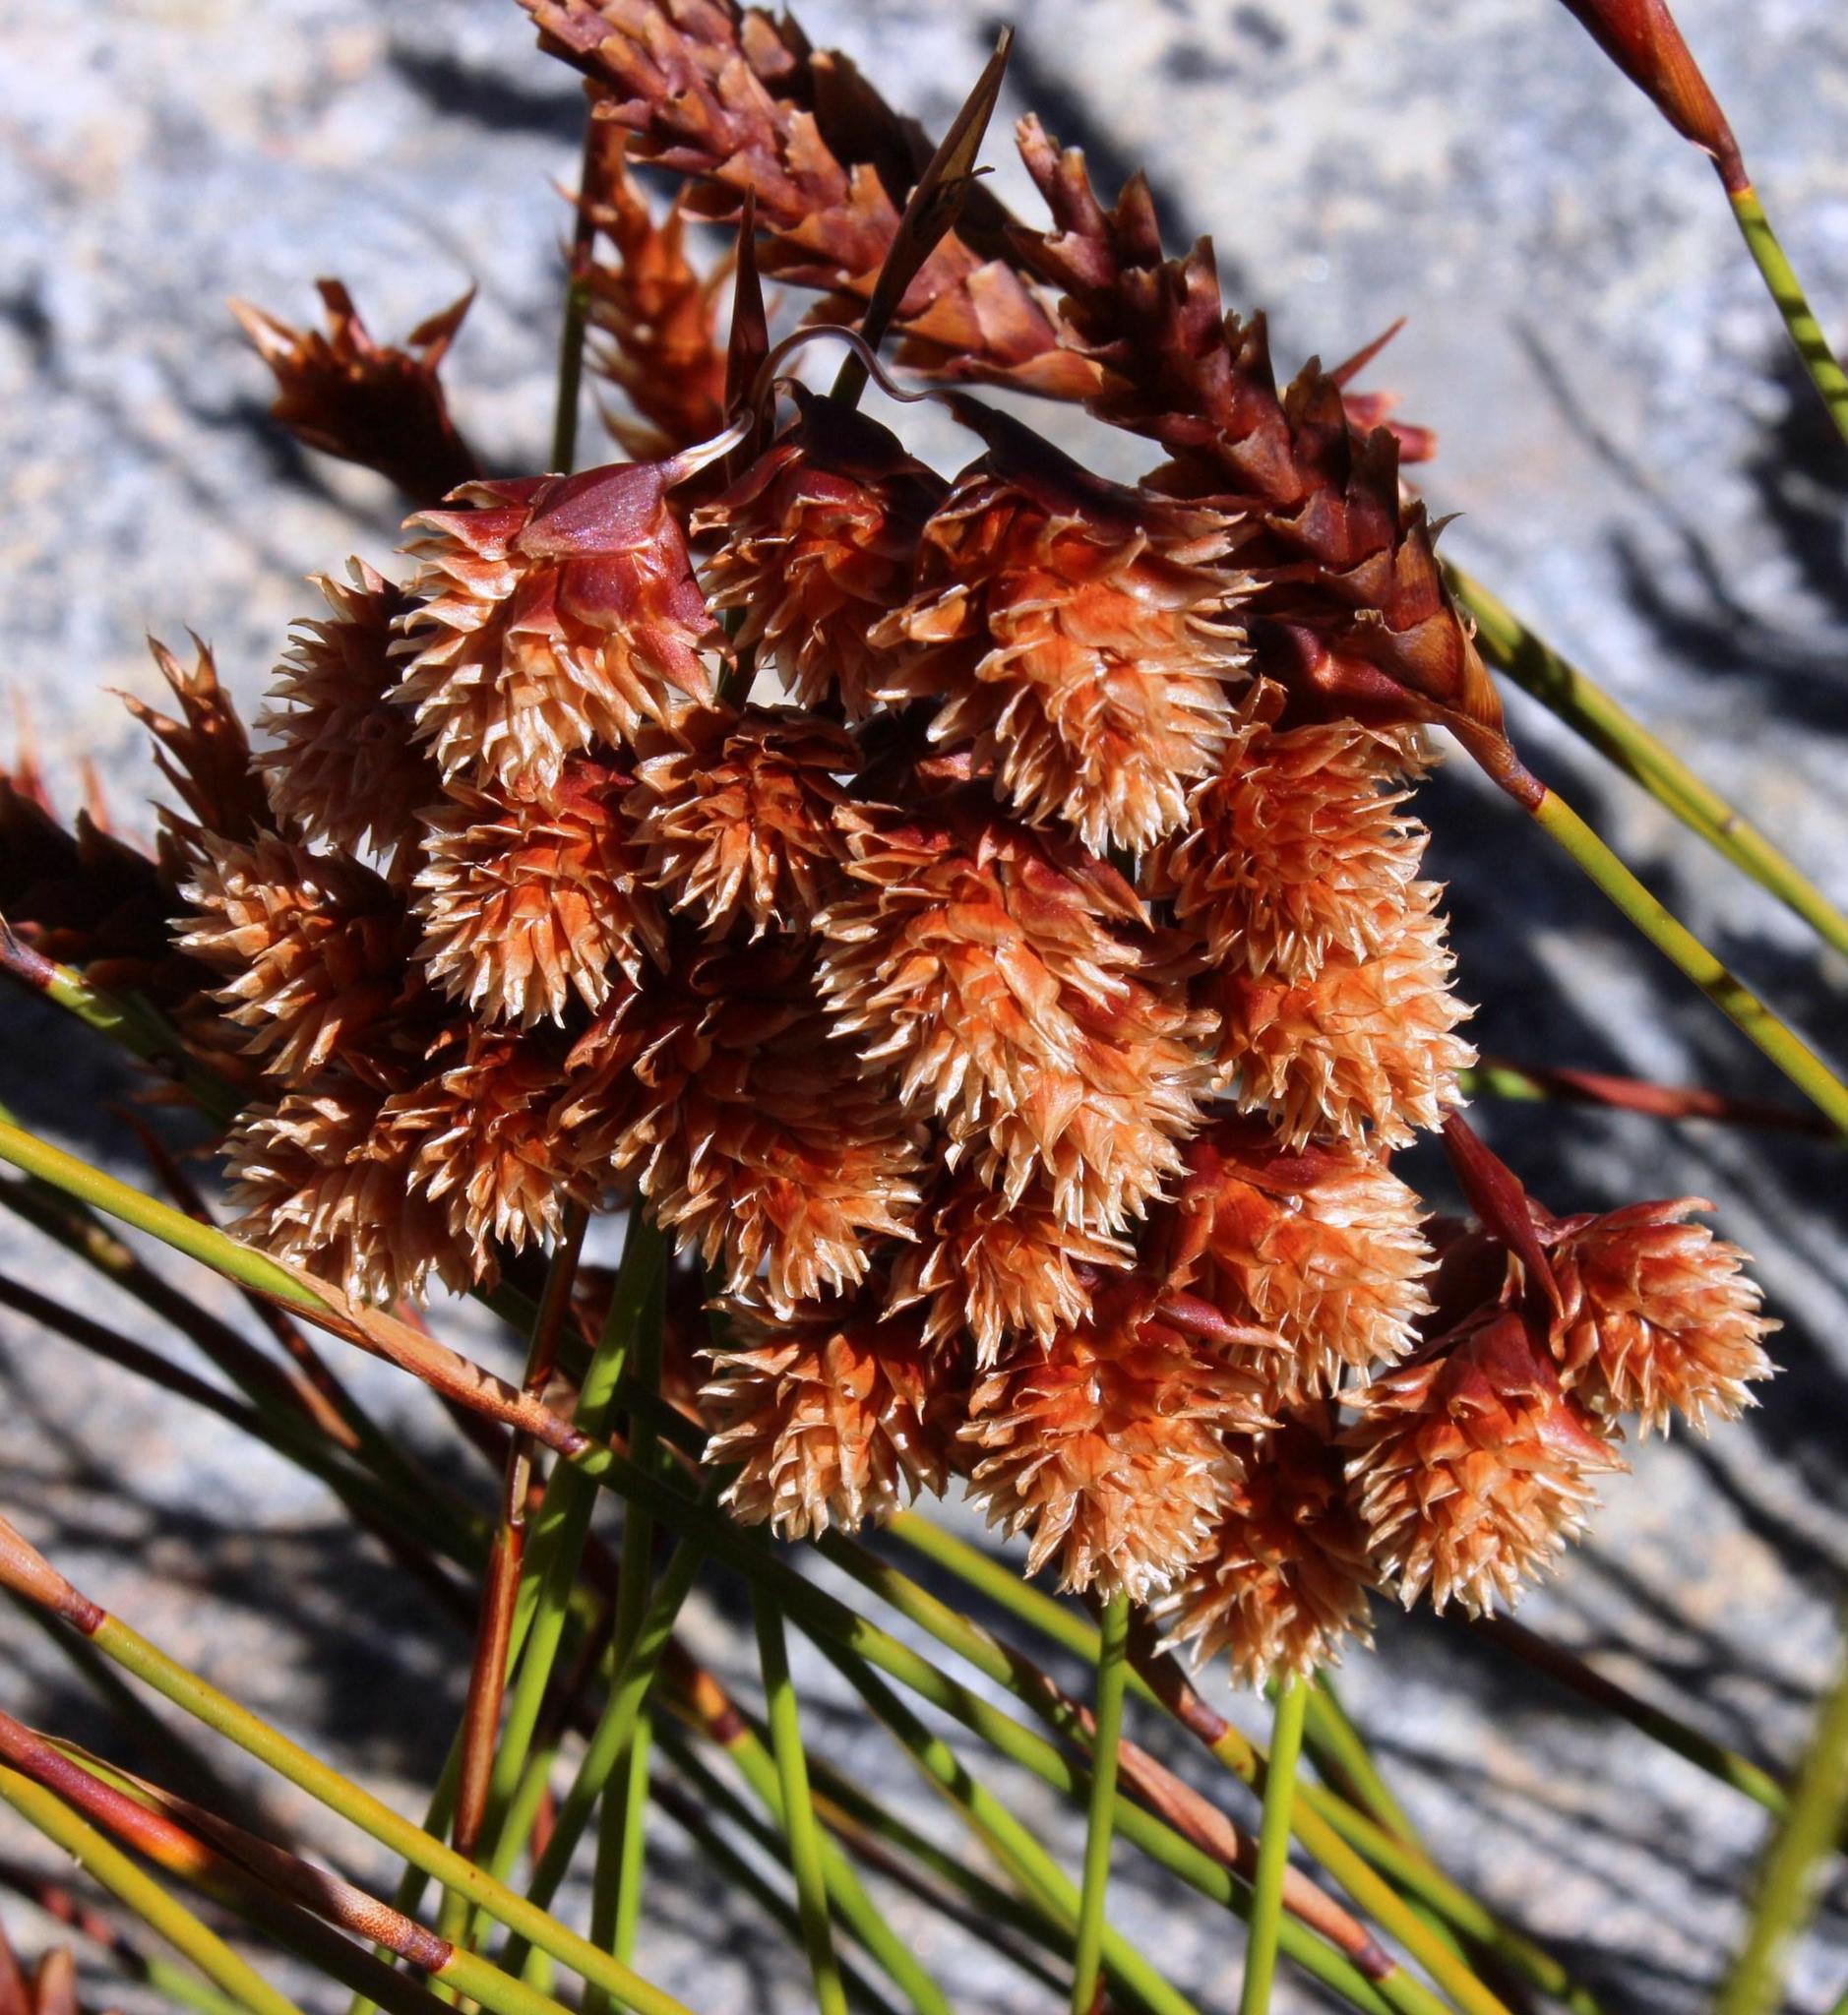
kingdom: Plantae
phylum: Tracheophyta
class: Liliopsida
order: Poales
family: Restionaceae
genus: Staberoha
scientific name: Staberoha aemula
